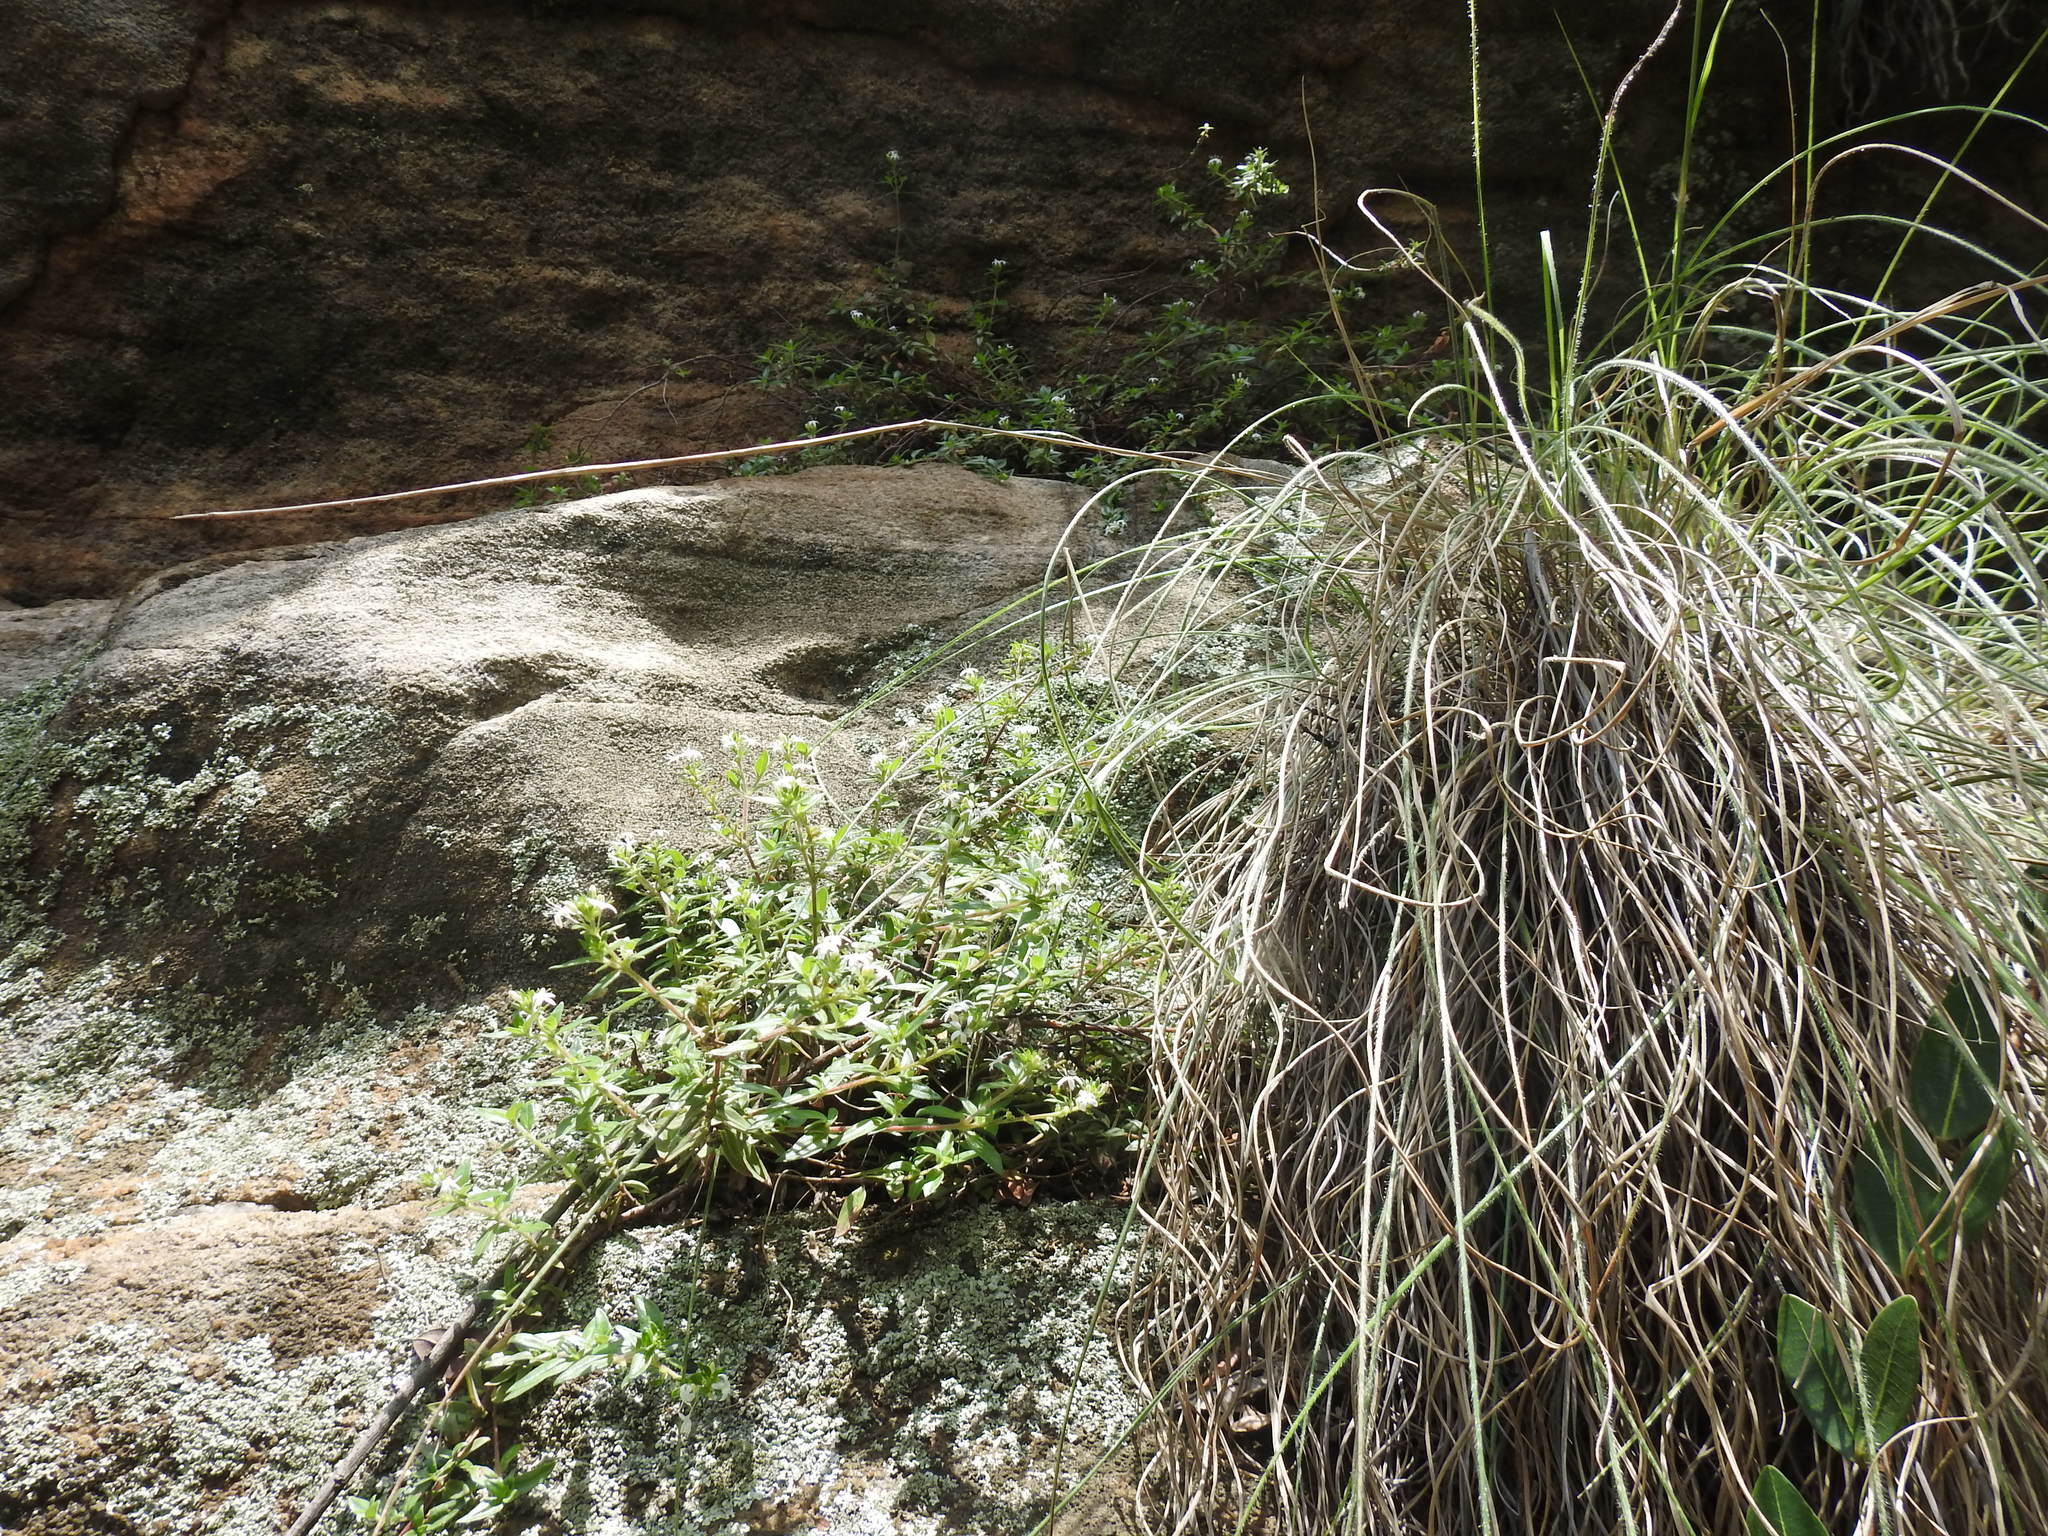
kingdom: Plantae
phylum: Tracheophyta
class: Magnoliopsida
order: Gentianales
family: Rubiaceae
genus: Otiophora
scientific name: Otiophora calycophylla
